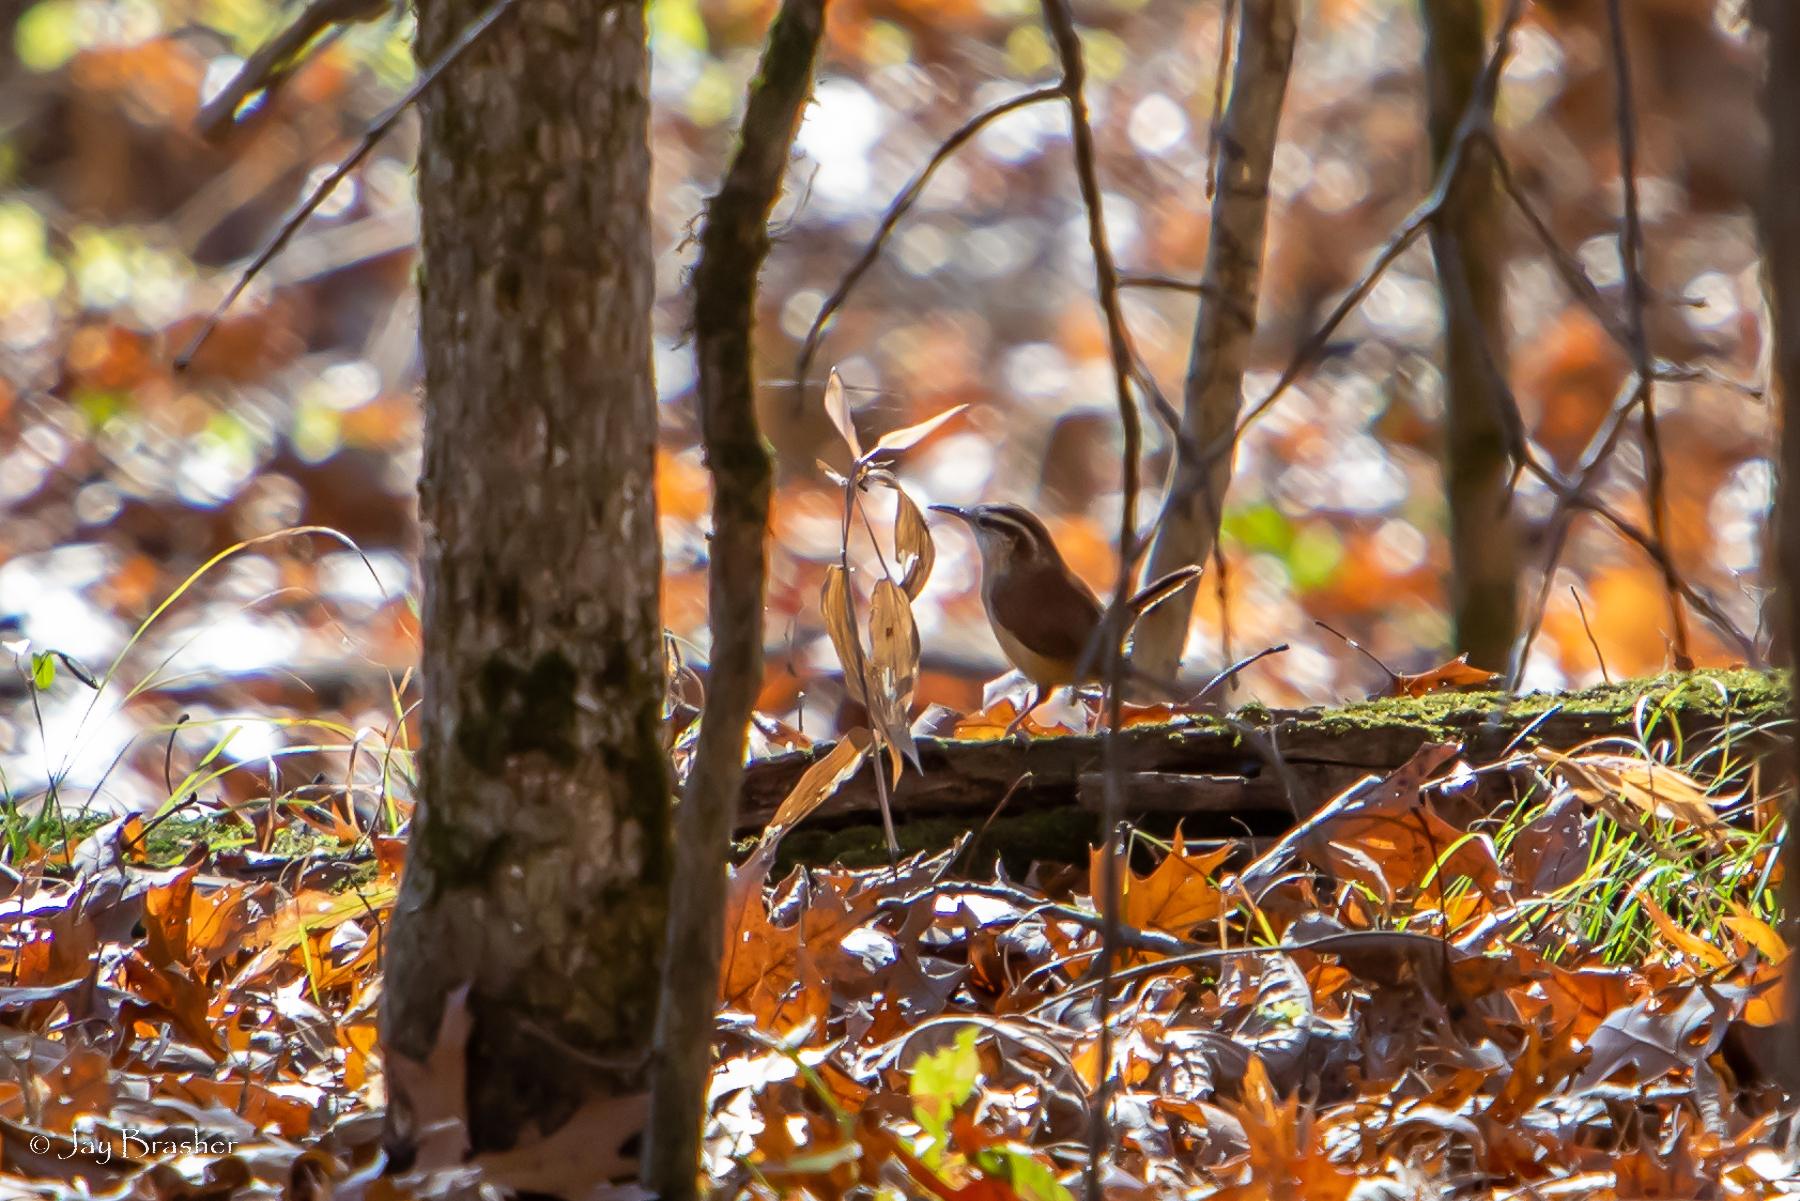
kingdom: Animalia
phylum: Chordata
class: Aves
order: Passeriformes
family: Troglodytidae
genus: Thryothorus
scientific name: Thryothorus ludovicianus
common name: Carolina wren
